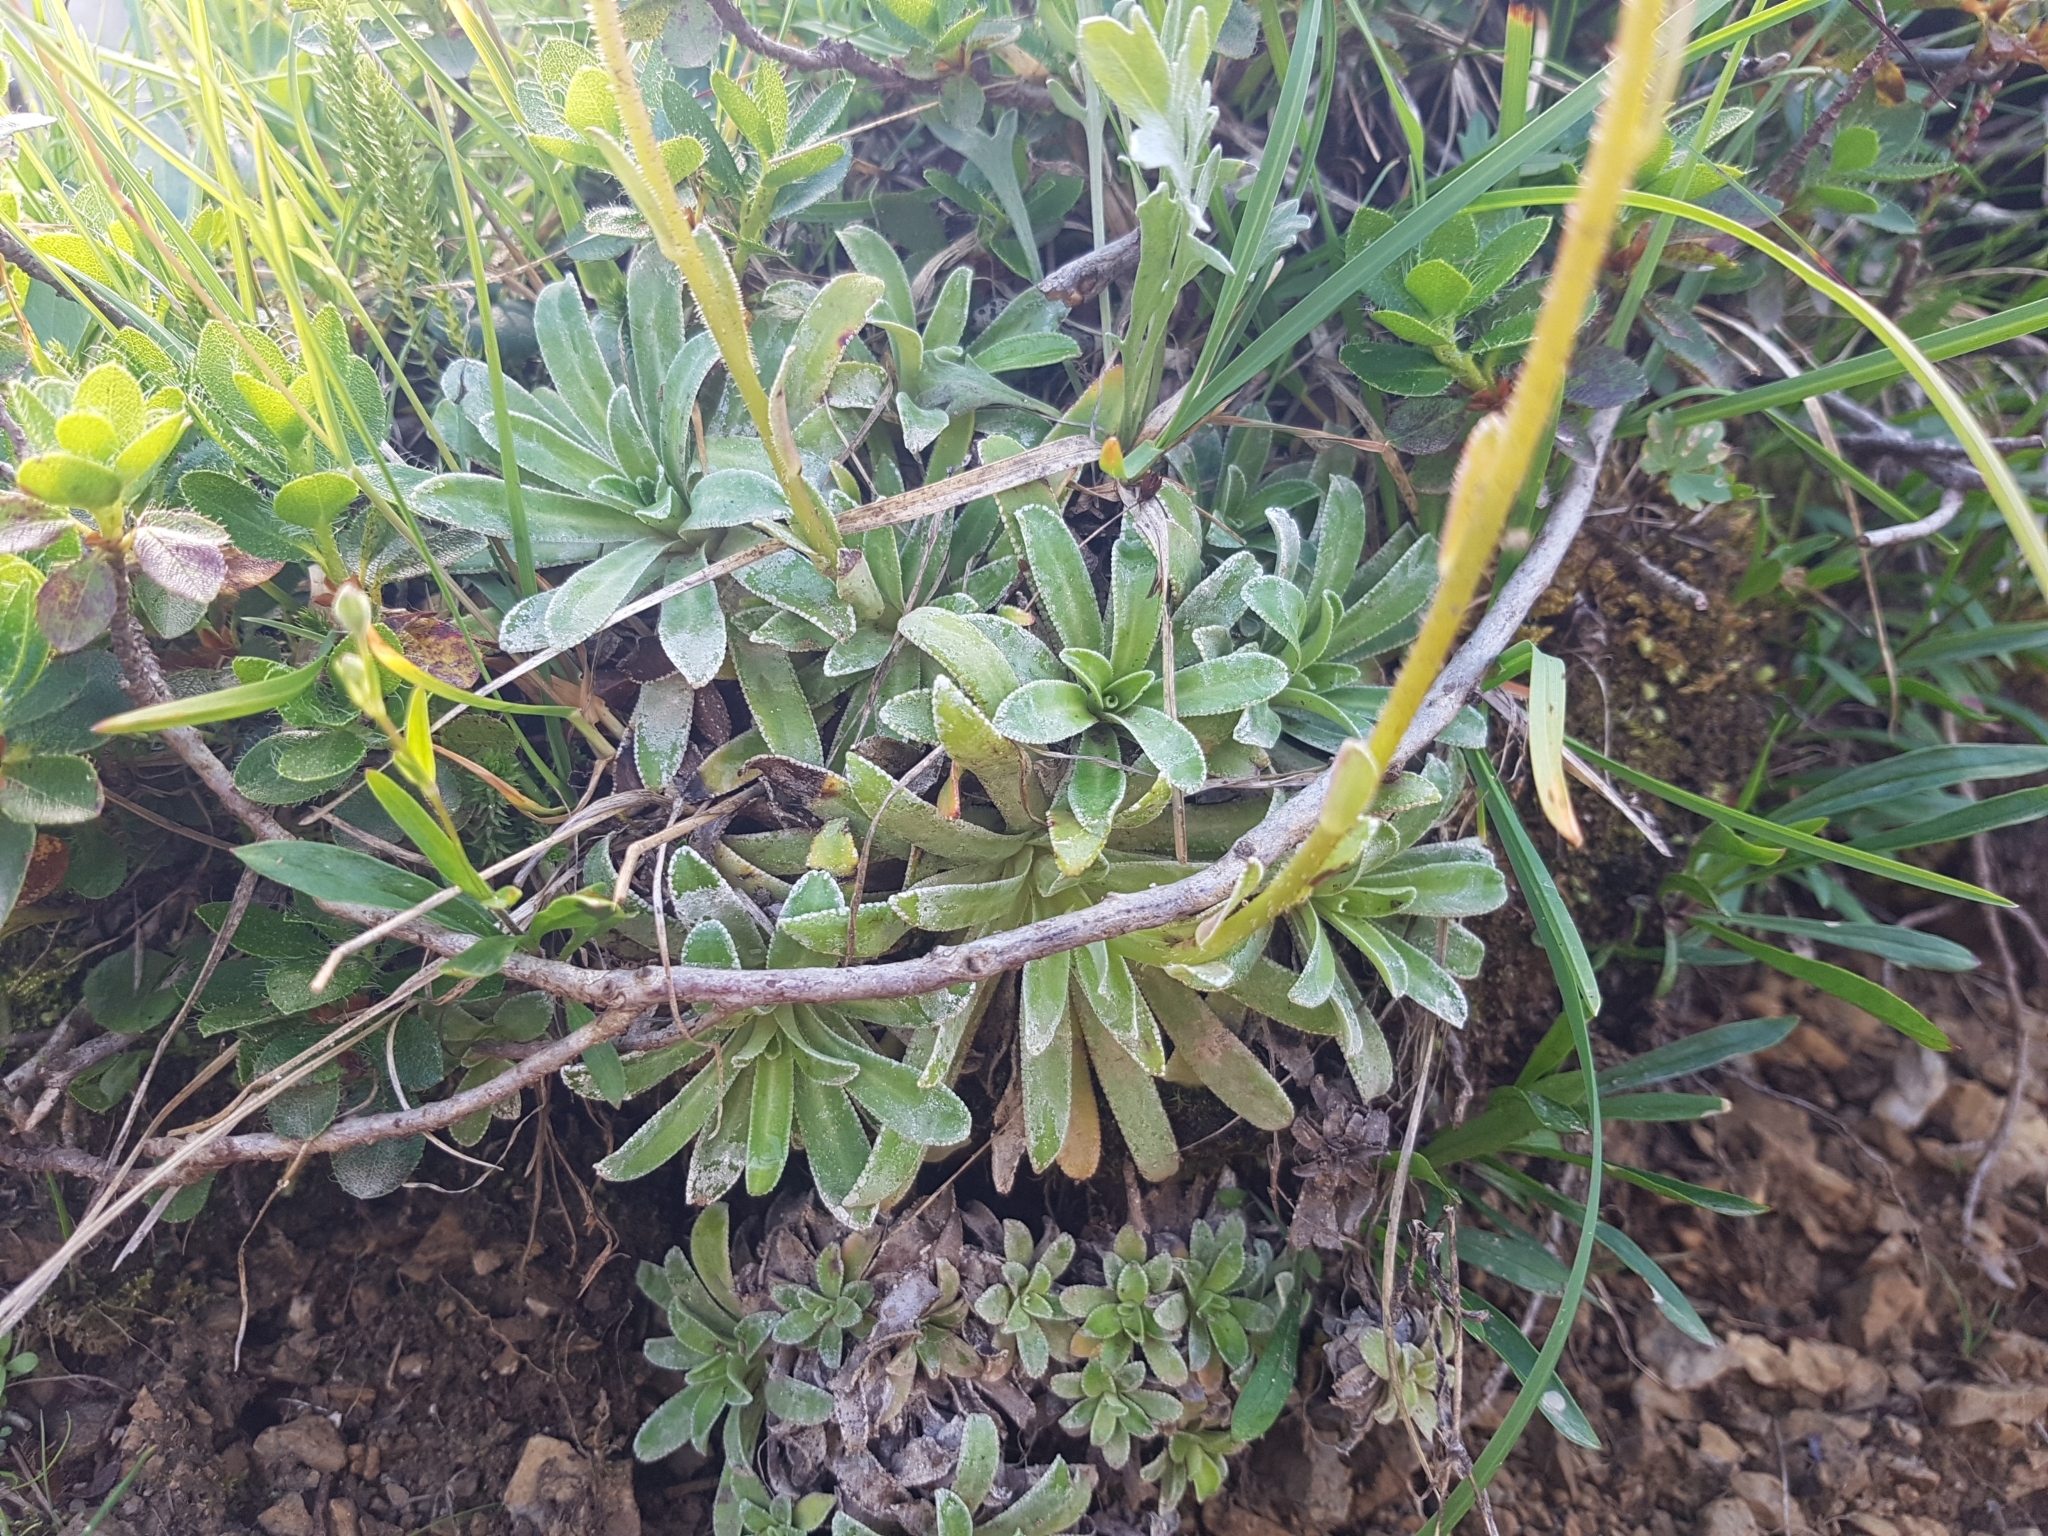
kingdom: Plantae
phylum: Tracheophyta
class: Magnoliopsida
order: Saxifragales
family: Saxifragaceae
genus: Saxifraga
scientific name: Saxifraga hostii
